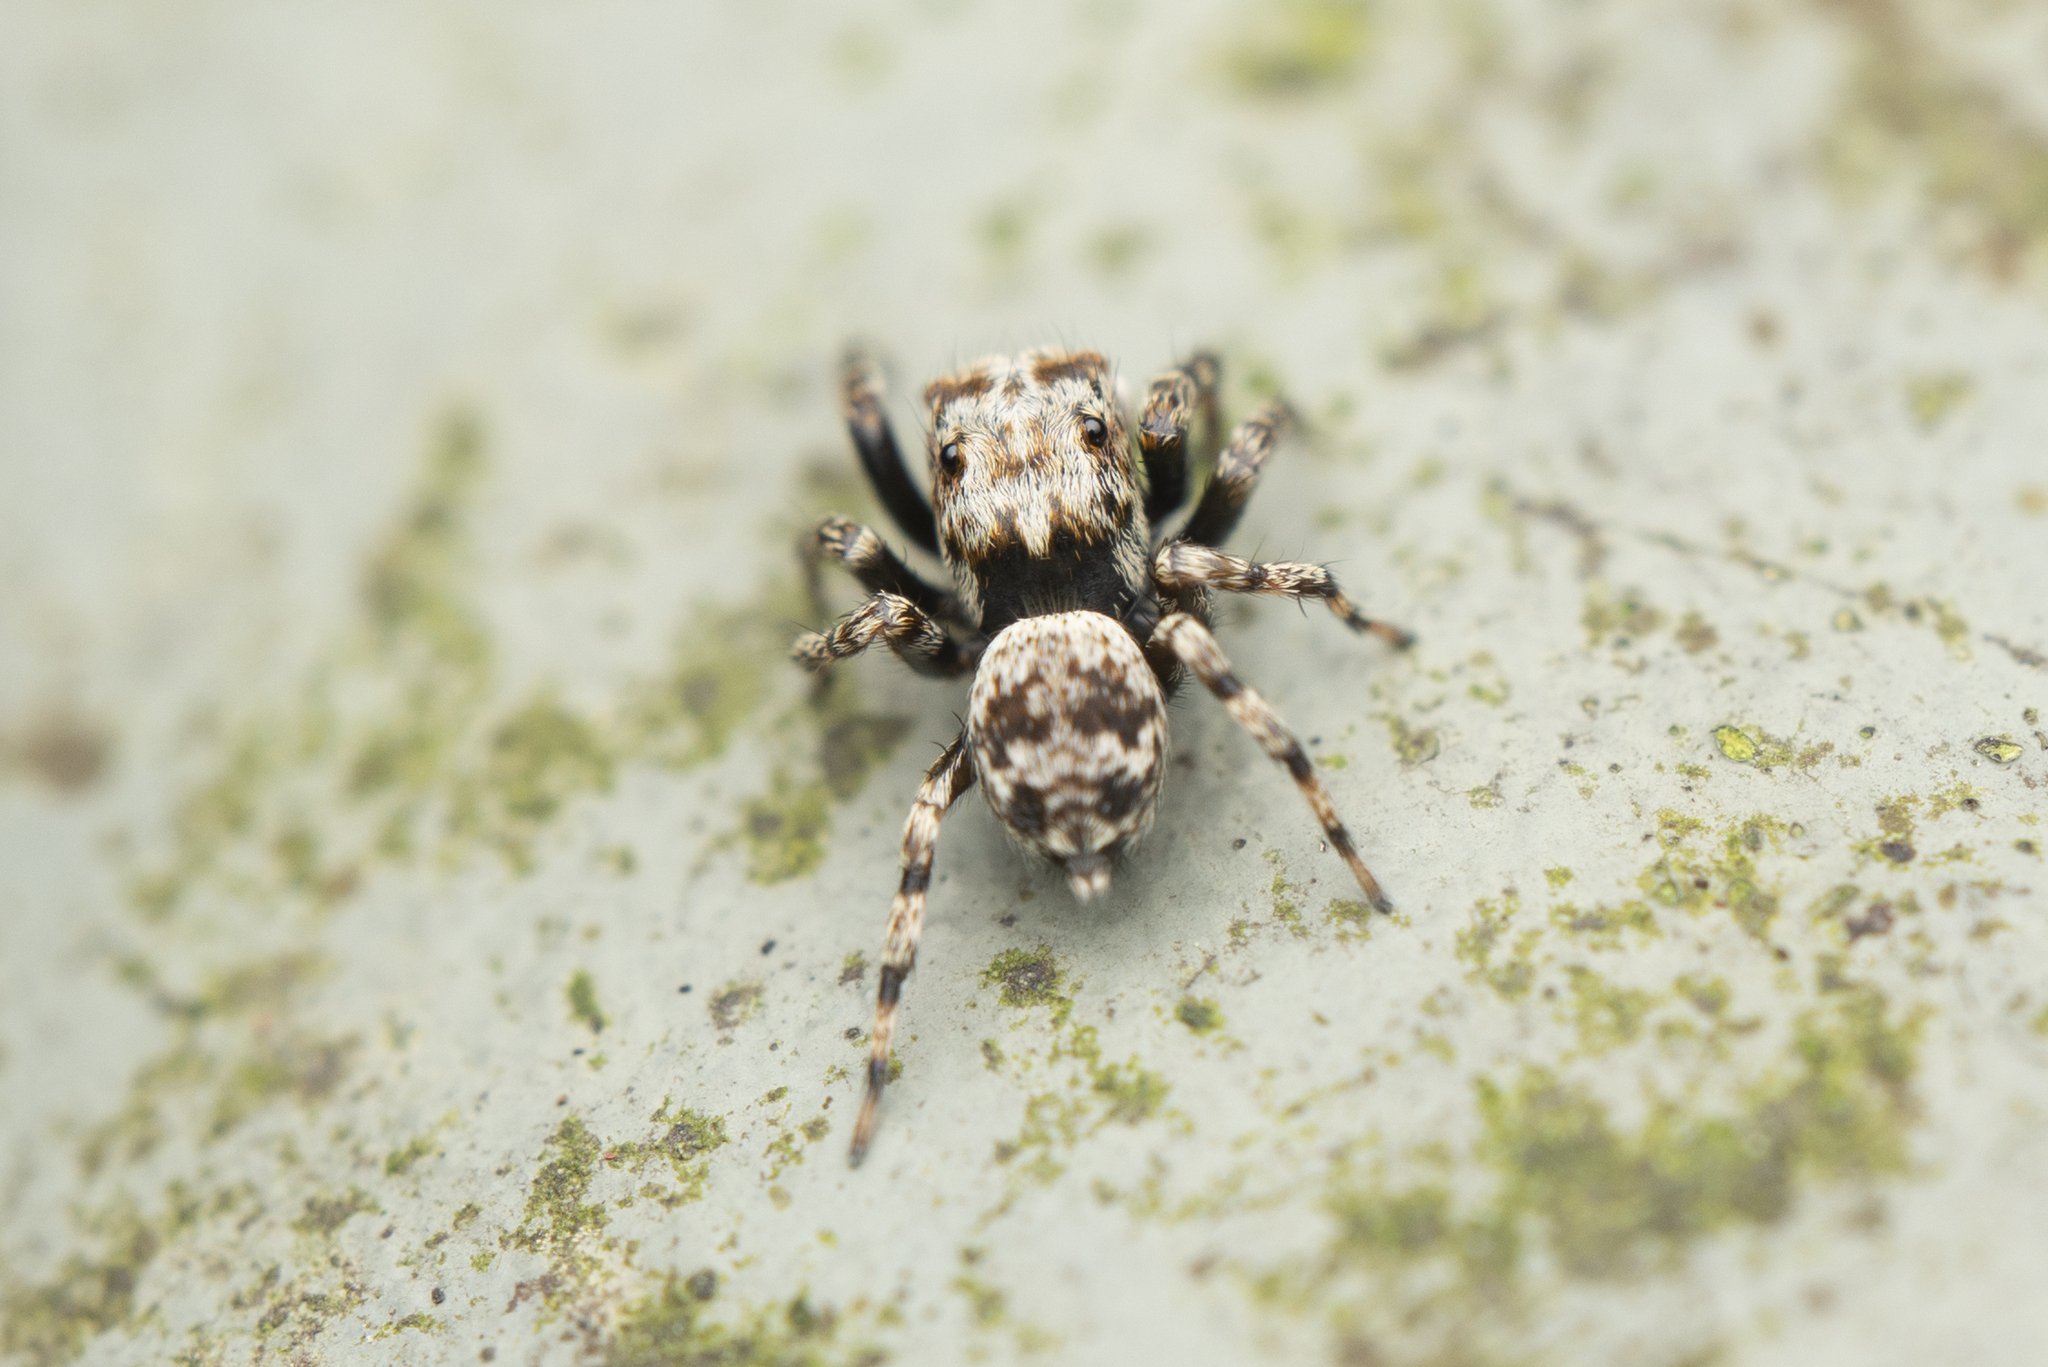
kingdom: Animalia
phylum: Arthropoda
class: Arachnida
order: Araneae
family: Salticidae
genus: Habrocestum
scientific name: Habrocestum hongkongiense
